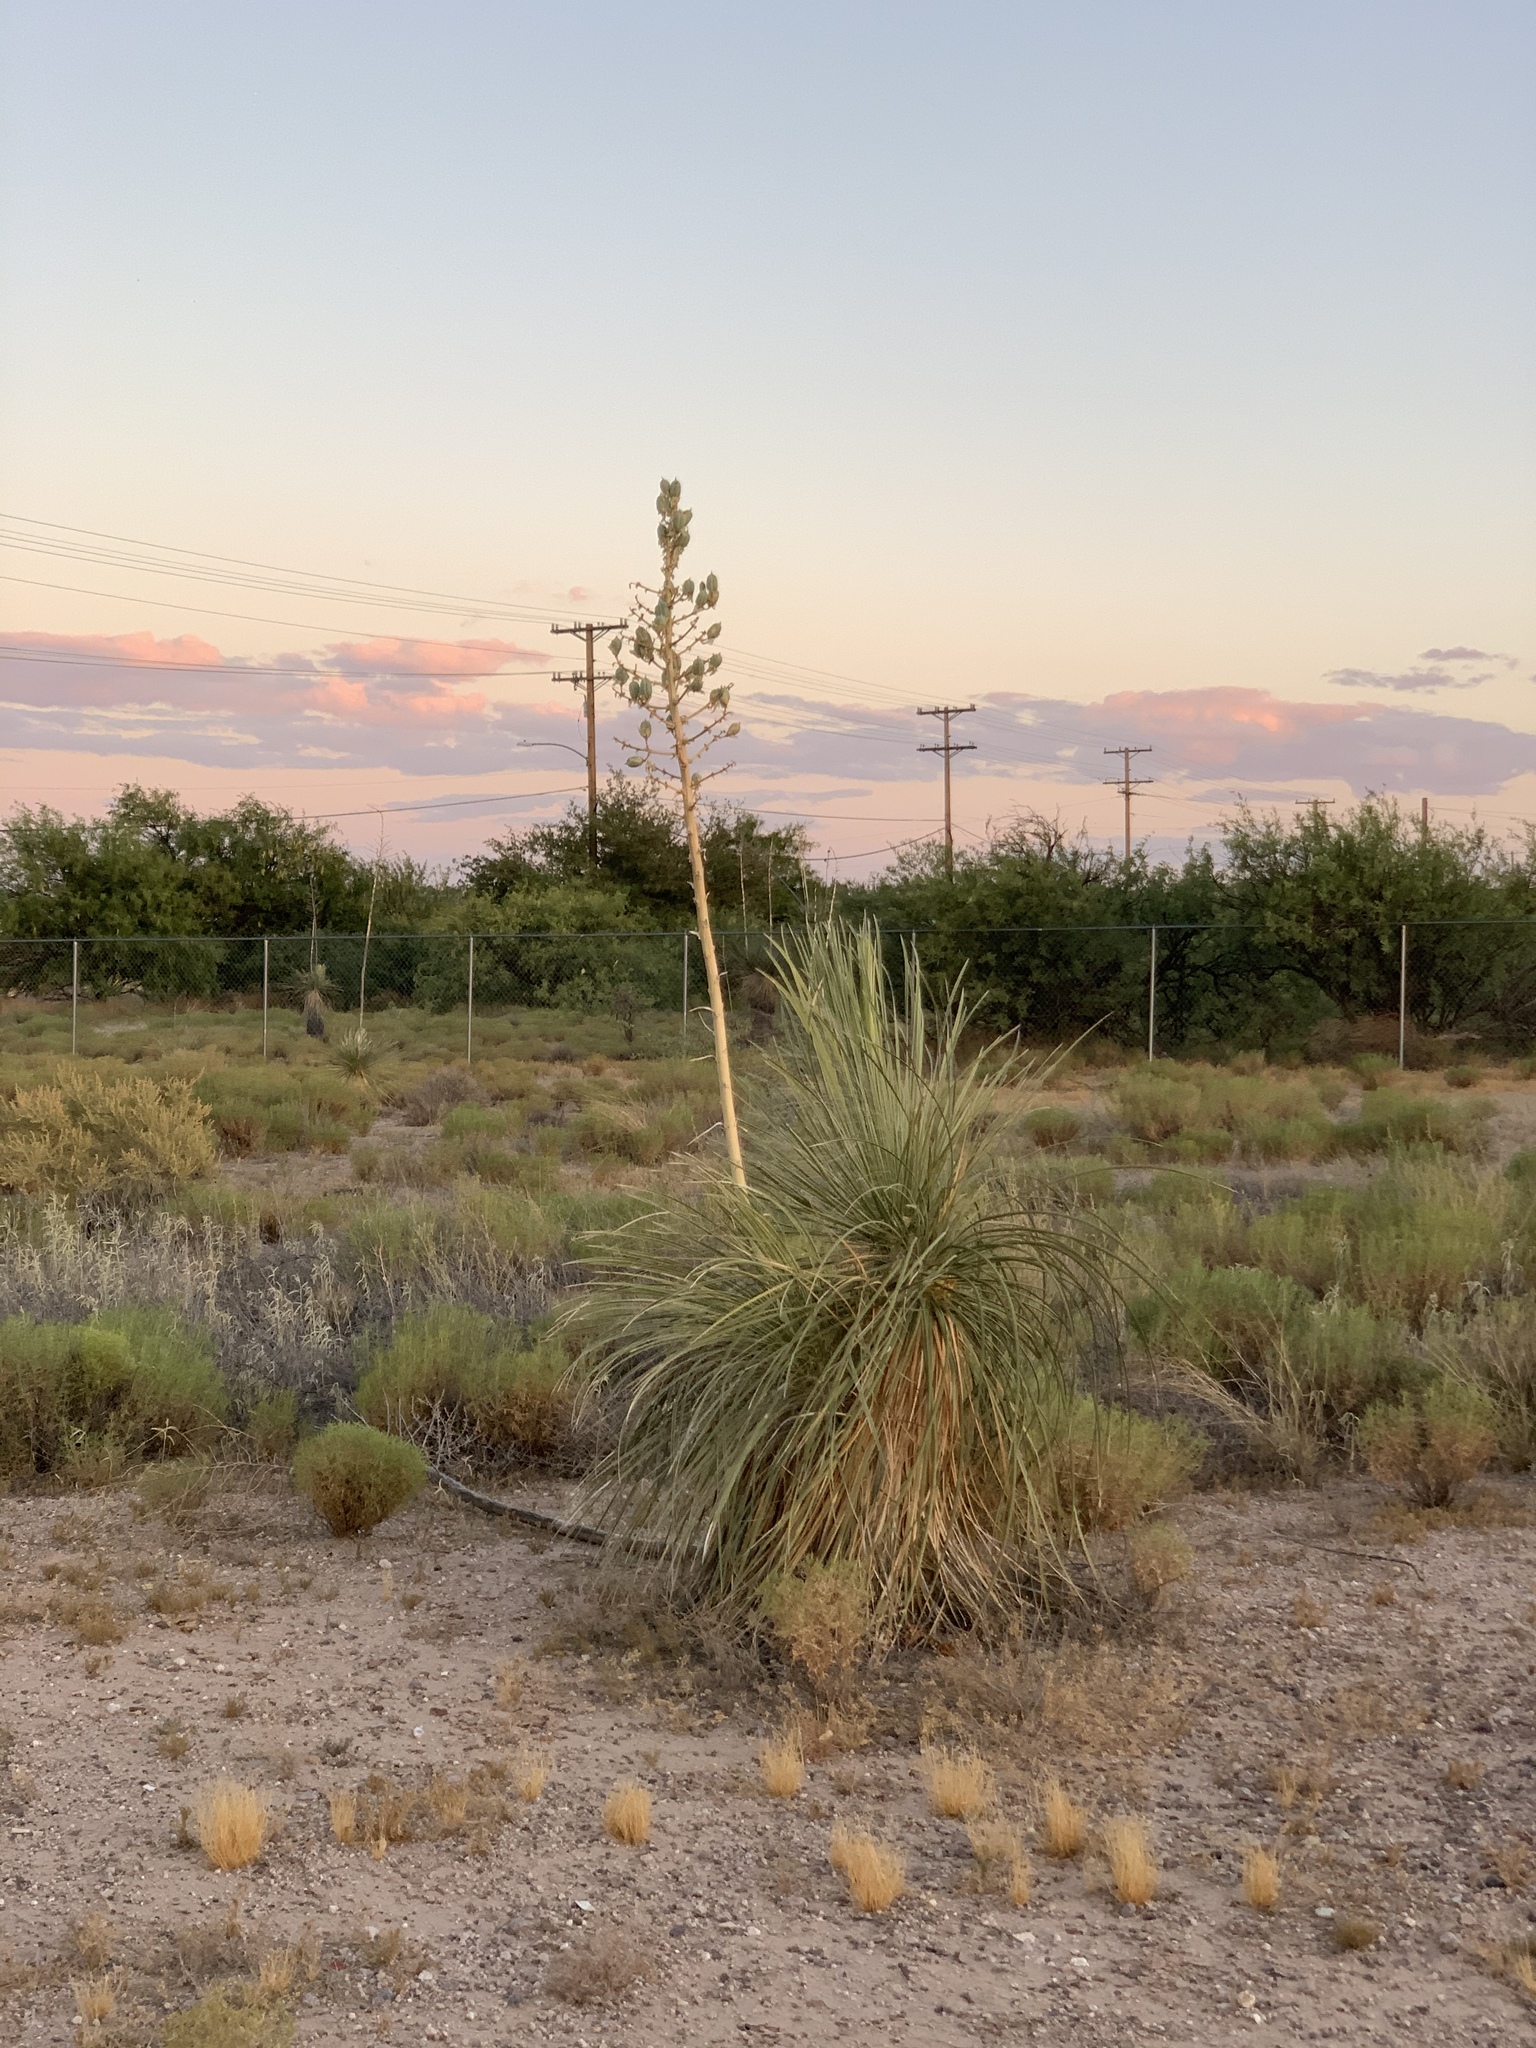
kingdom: Plantae
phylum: Tracheophyta
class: Liliopsida
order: Asparagales
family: Asparagaceae
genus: Yucca
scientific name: Yucca elata
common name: Palmella
